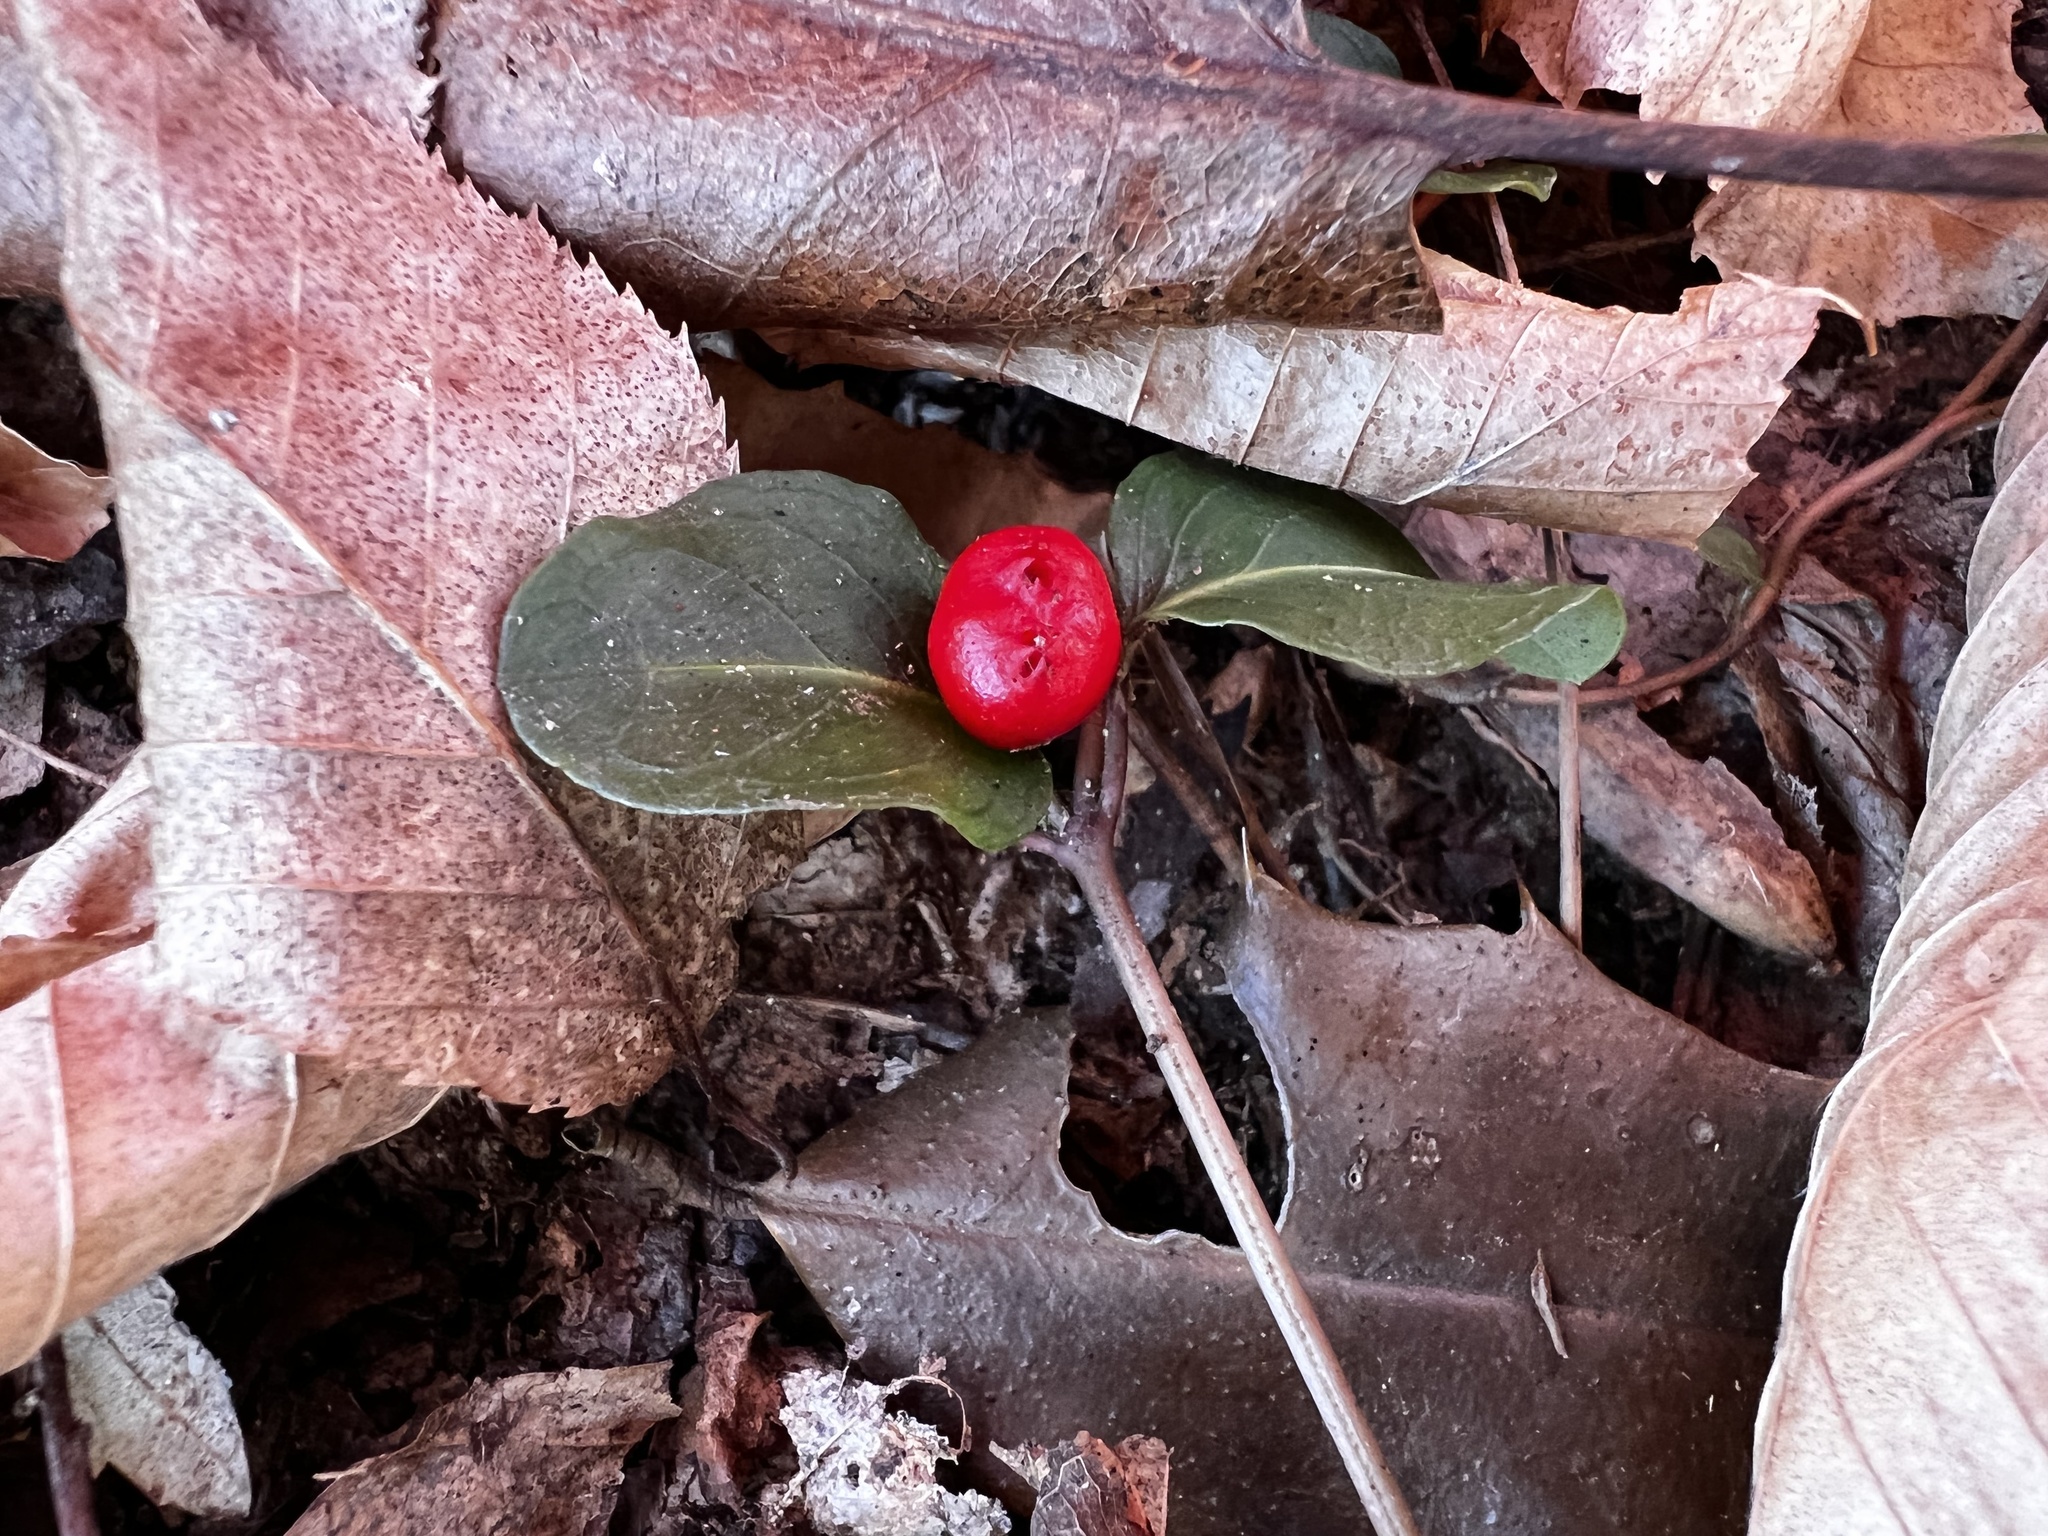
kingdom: Plantae
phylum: Tracheophyta
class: Magnoliopsida
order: Gentianales
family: Rubiaceae
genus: Mitchella
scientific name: Mitchella repens
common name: Partridge-berry
